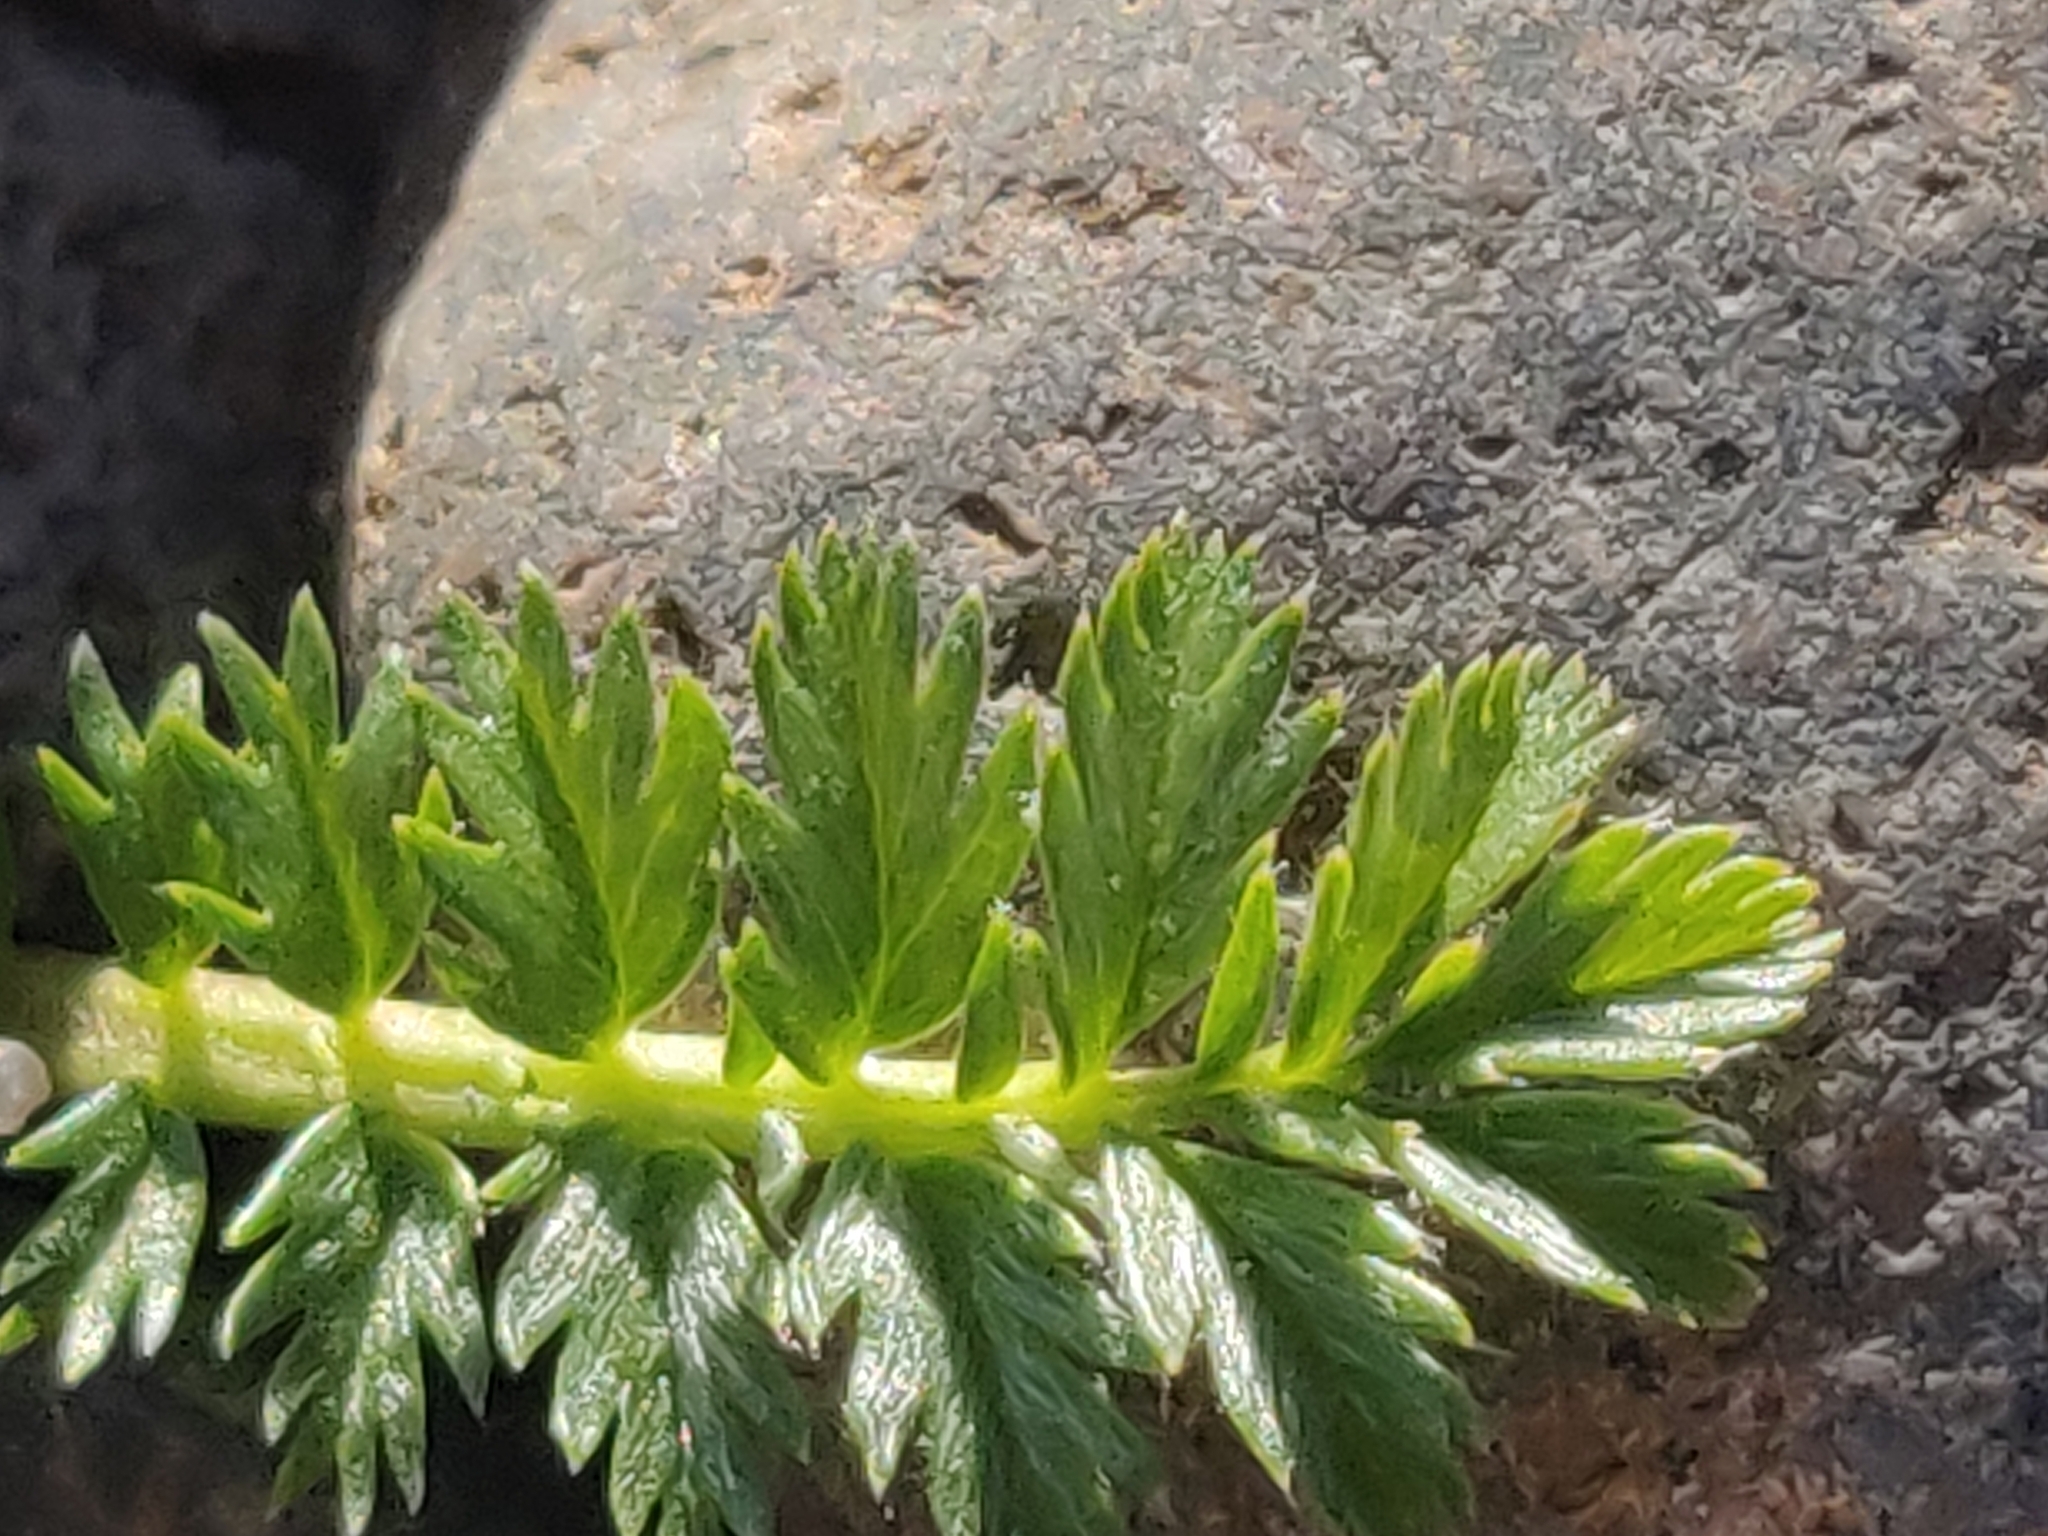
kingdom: Plantae
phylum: Tracheophyta
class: Magnoliopsida
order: Rosales
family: Rosaceae
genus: Argentina
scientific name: Argentina anserina
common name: Common silverweed
